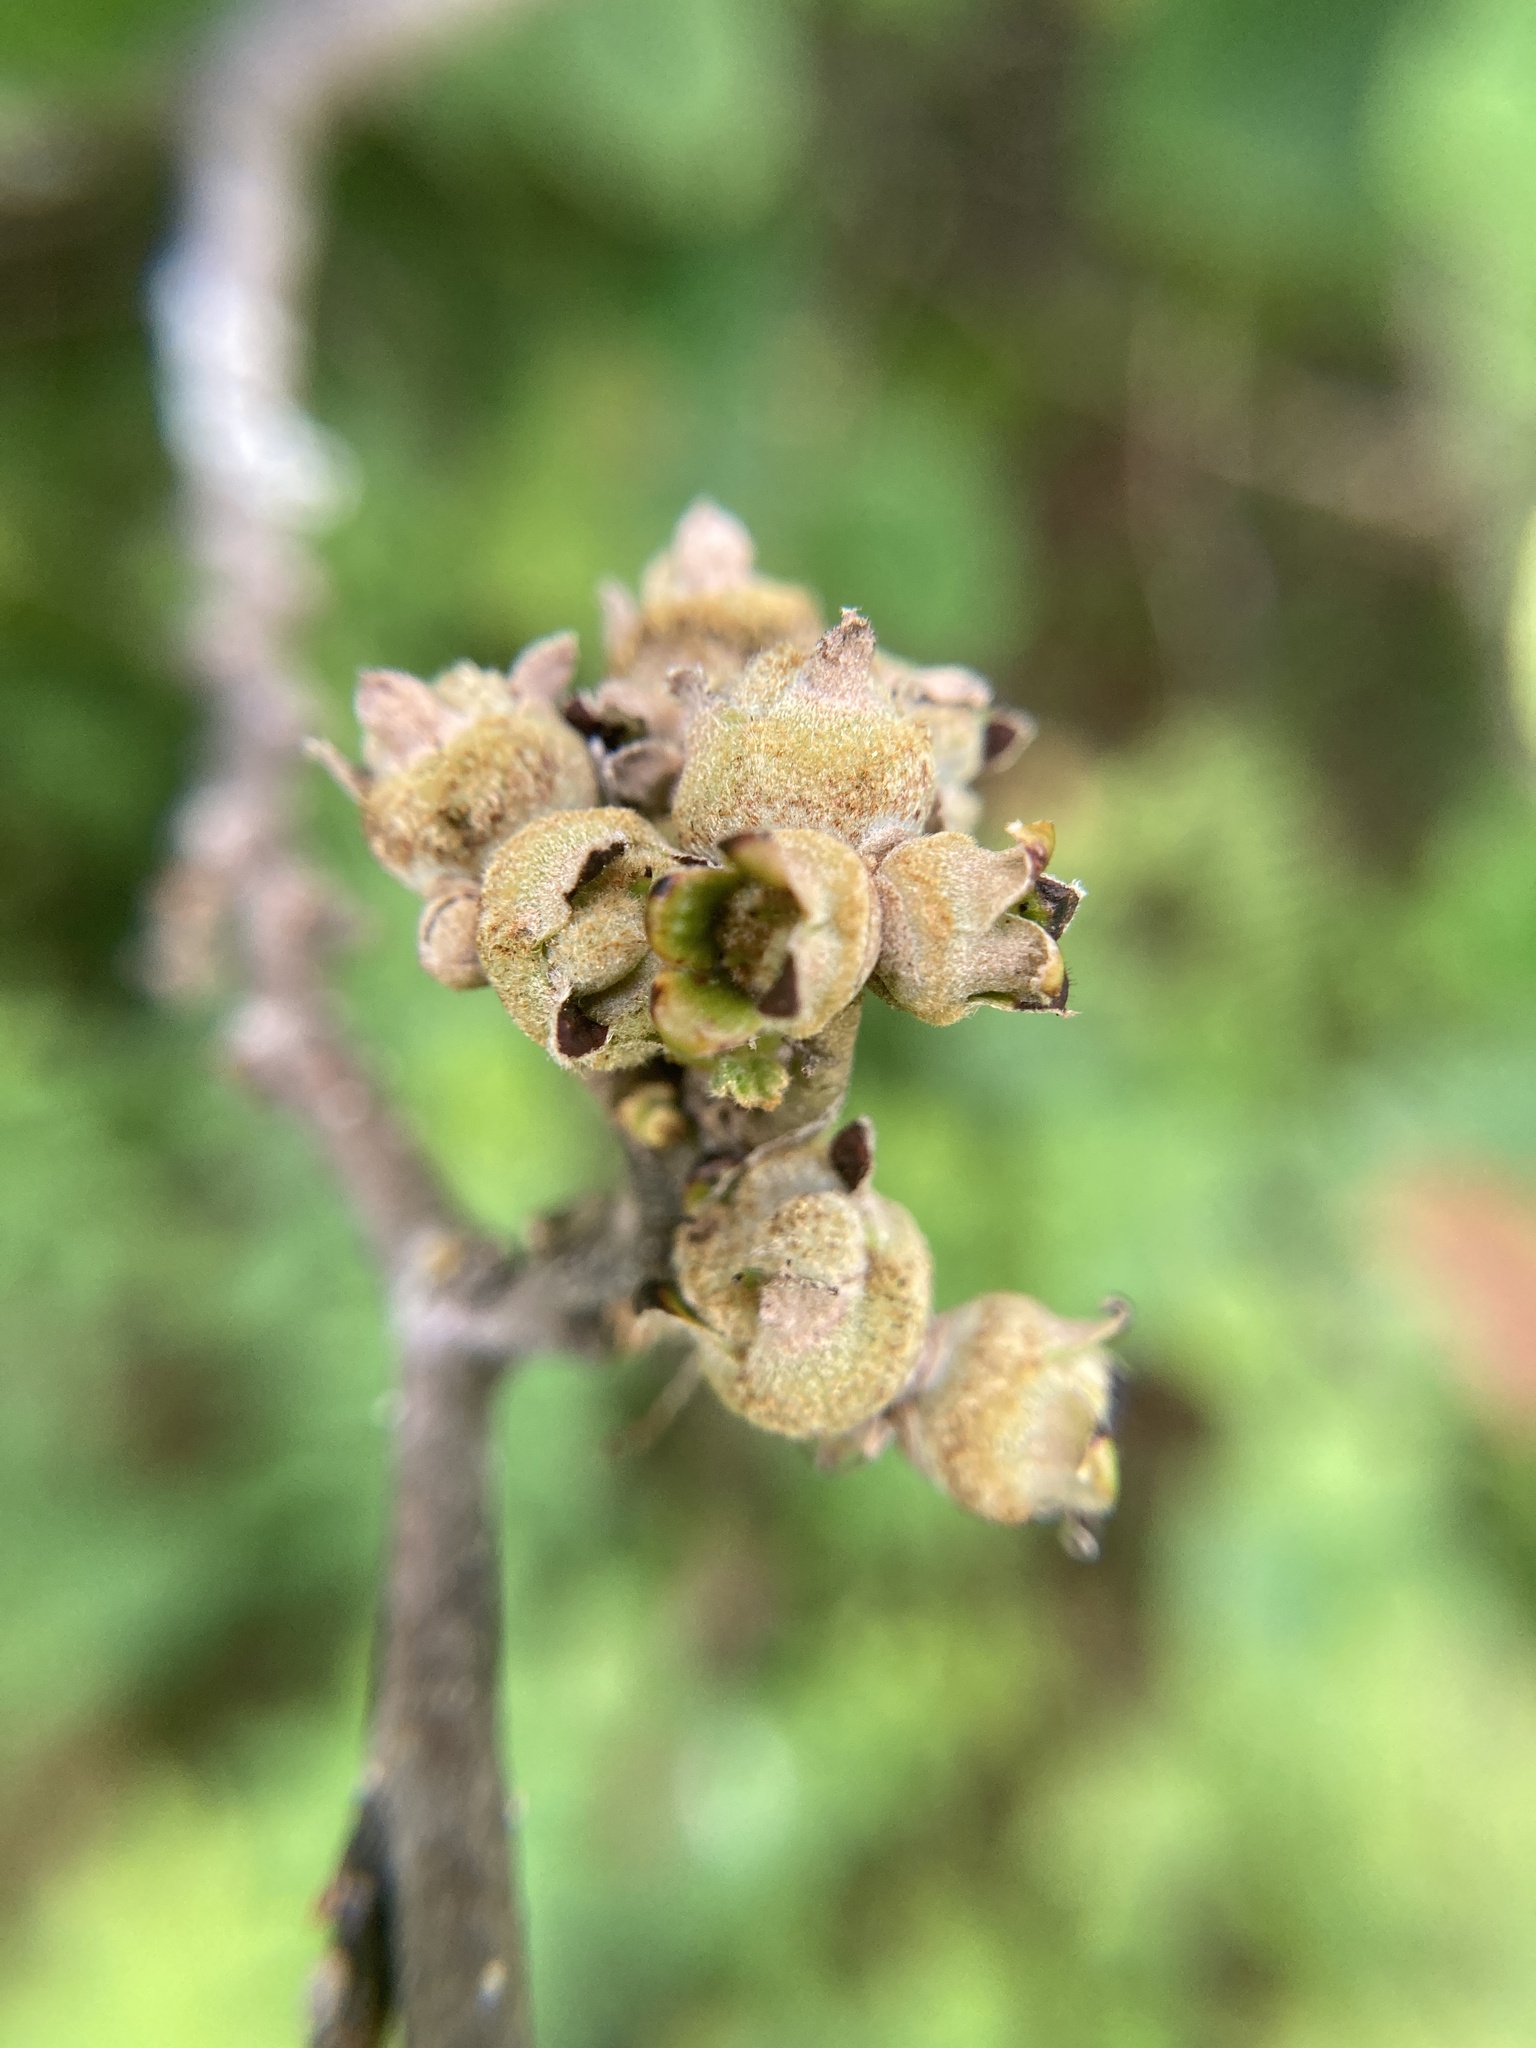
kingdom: Plantae
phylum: Tracheophyta
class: Magnoliopsida
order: Saxifragales
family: Hamamelidaceae
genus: Hamamelis
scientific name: Hamamelis virginiana
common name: Witch-hazel
